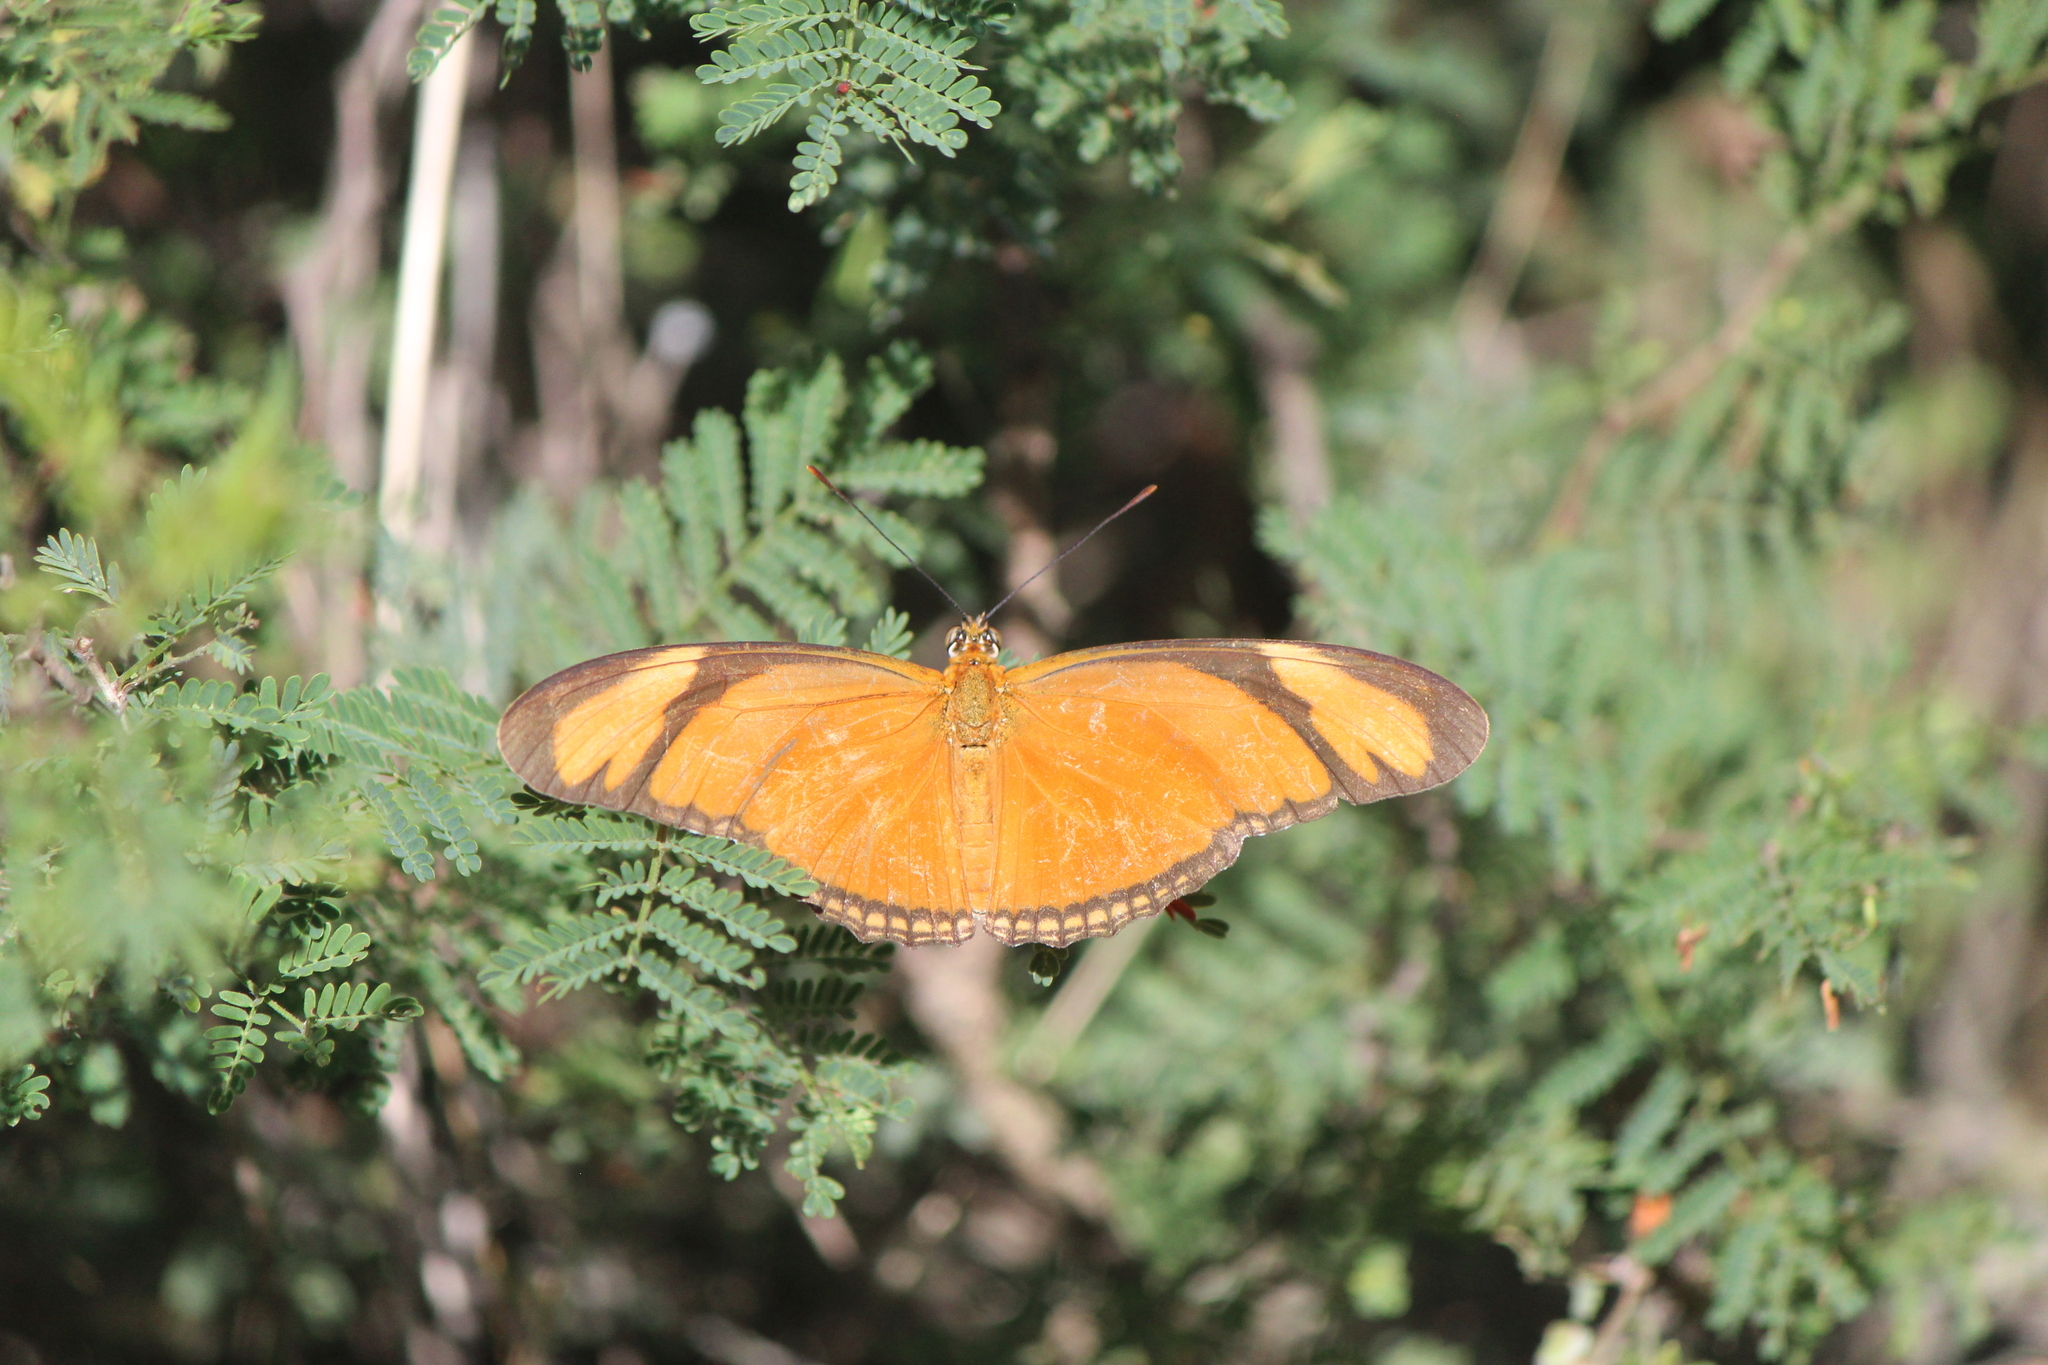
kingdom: Animalia
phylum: Arthropoda
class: Insecta
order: Lepidoptera
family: Nymphalidae
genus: Dryas
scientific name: Dryas iulia
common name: Flambeau
